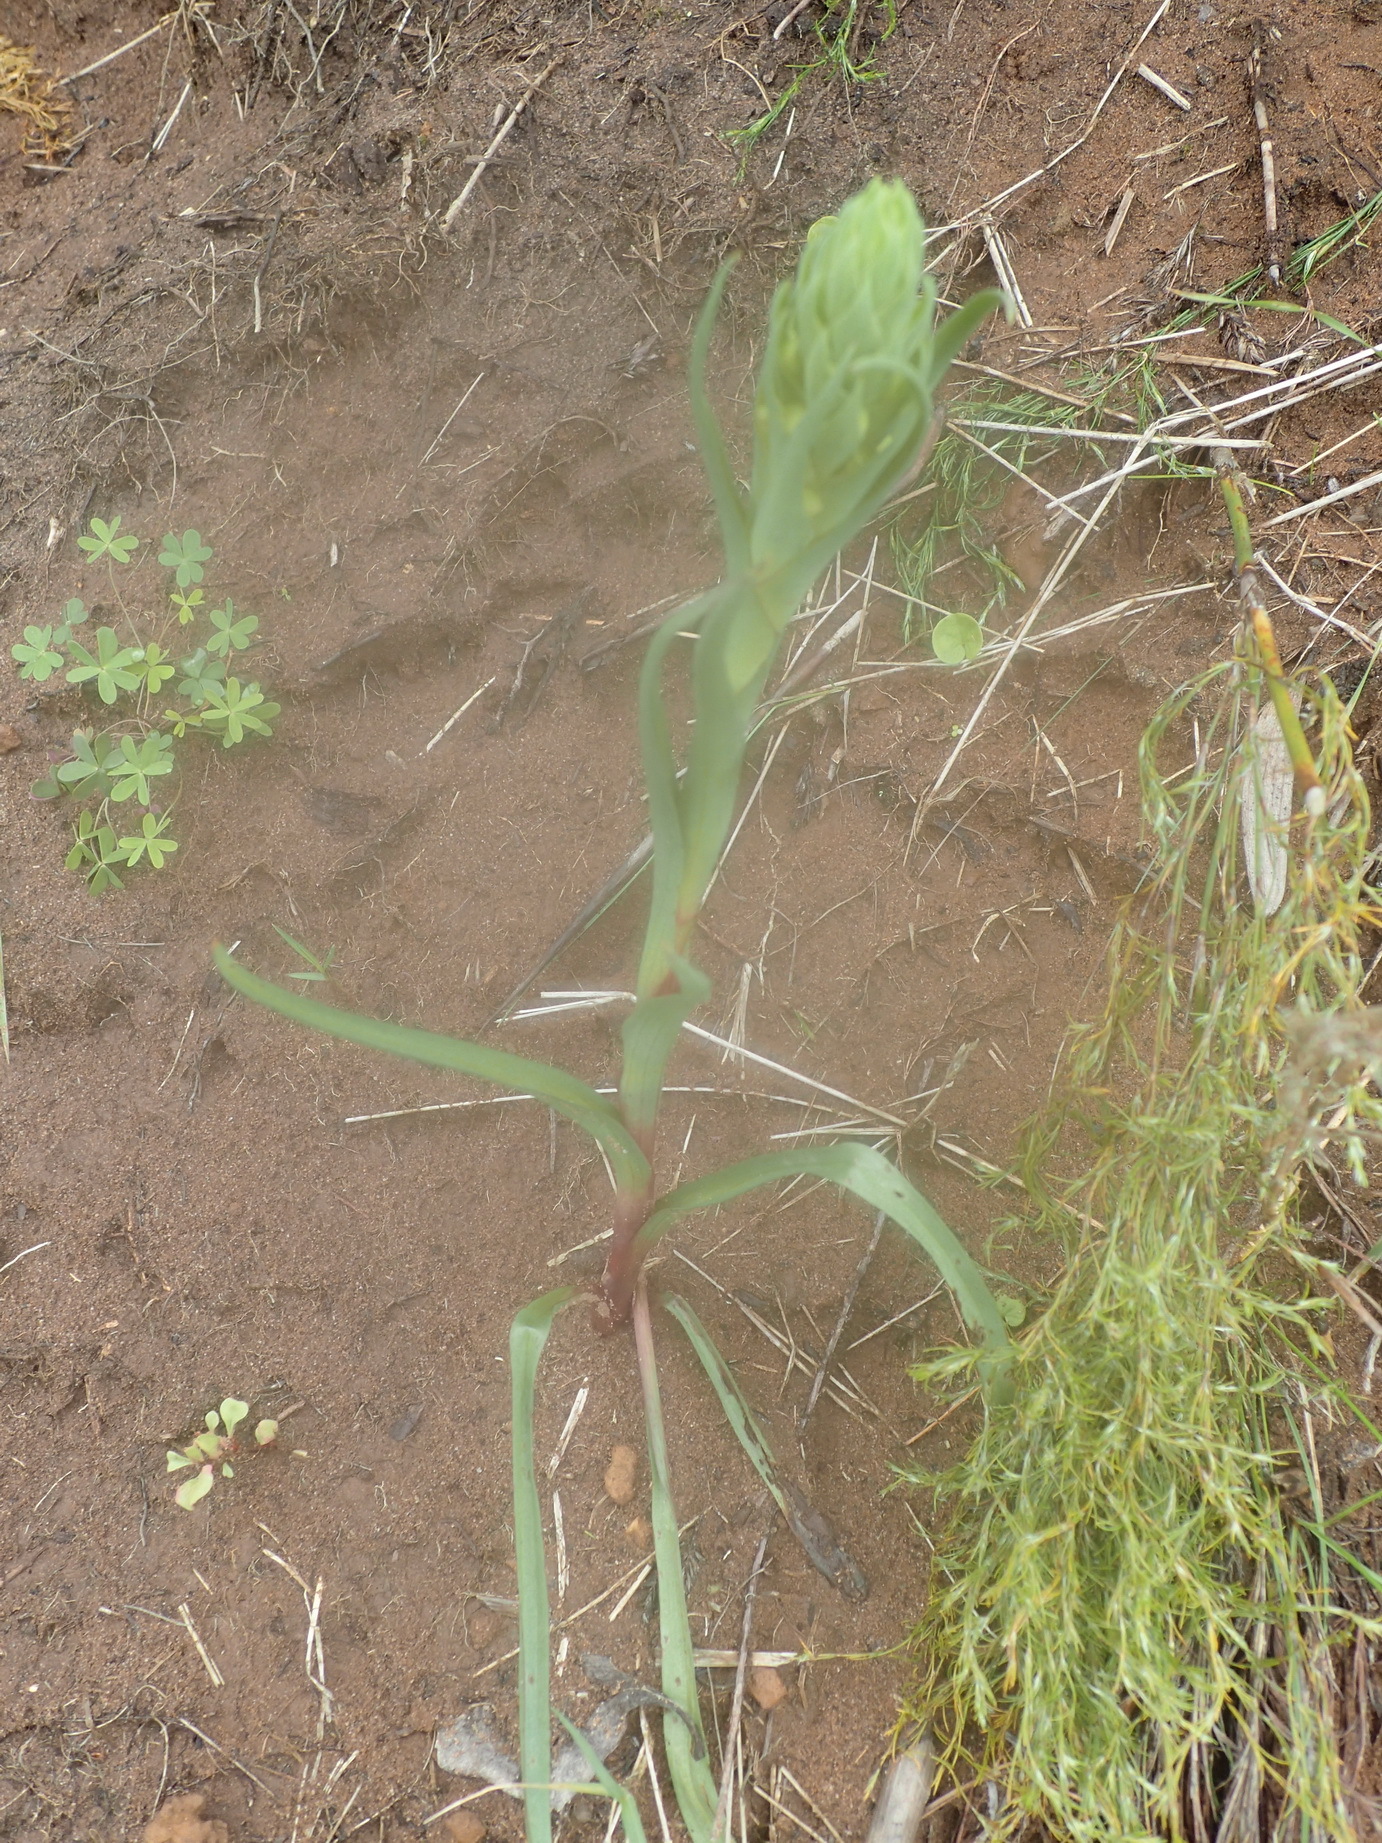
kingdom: Plantae
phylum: Tracheophyta
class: Liliopsida
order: Asparagales
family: Orchidaceae
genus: Disa
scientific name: Disa bracteata
